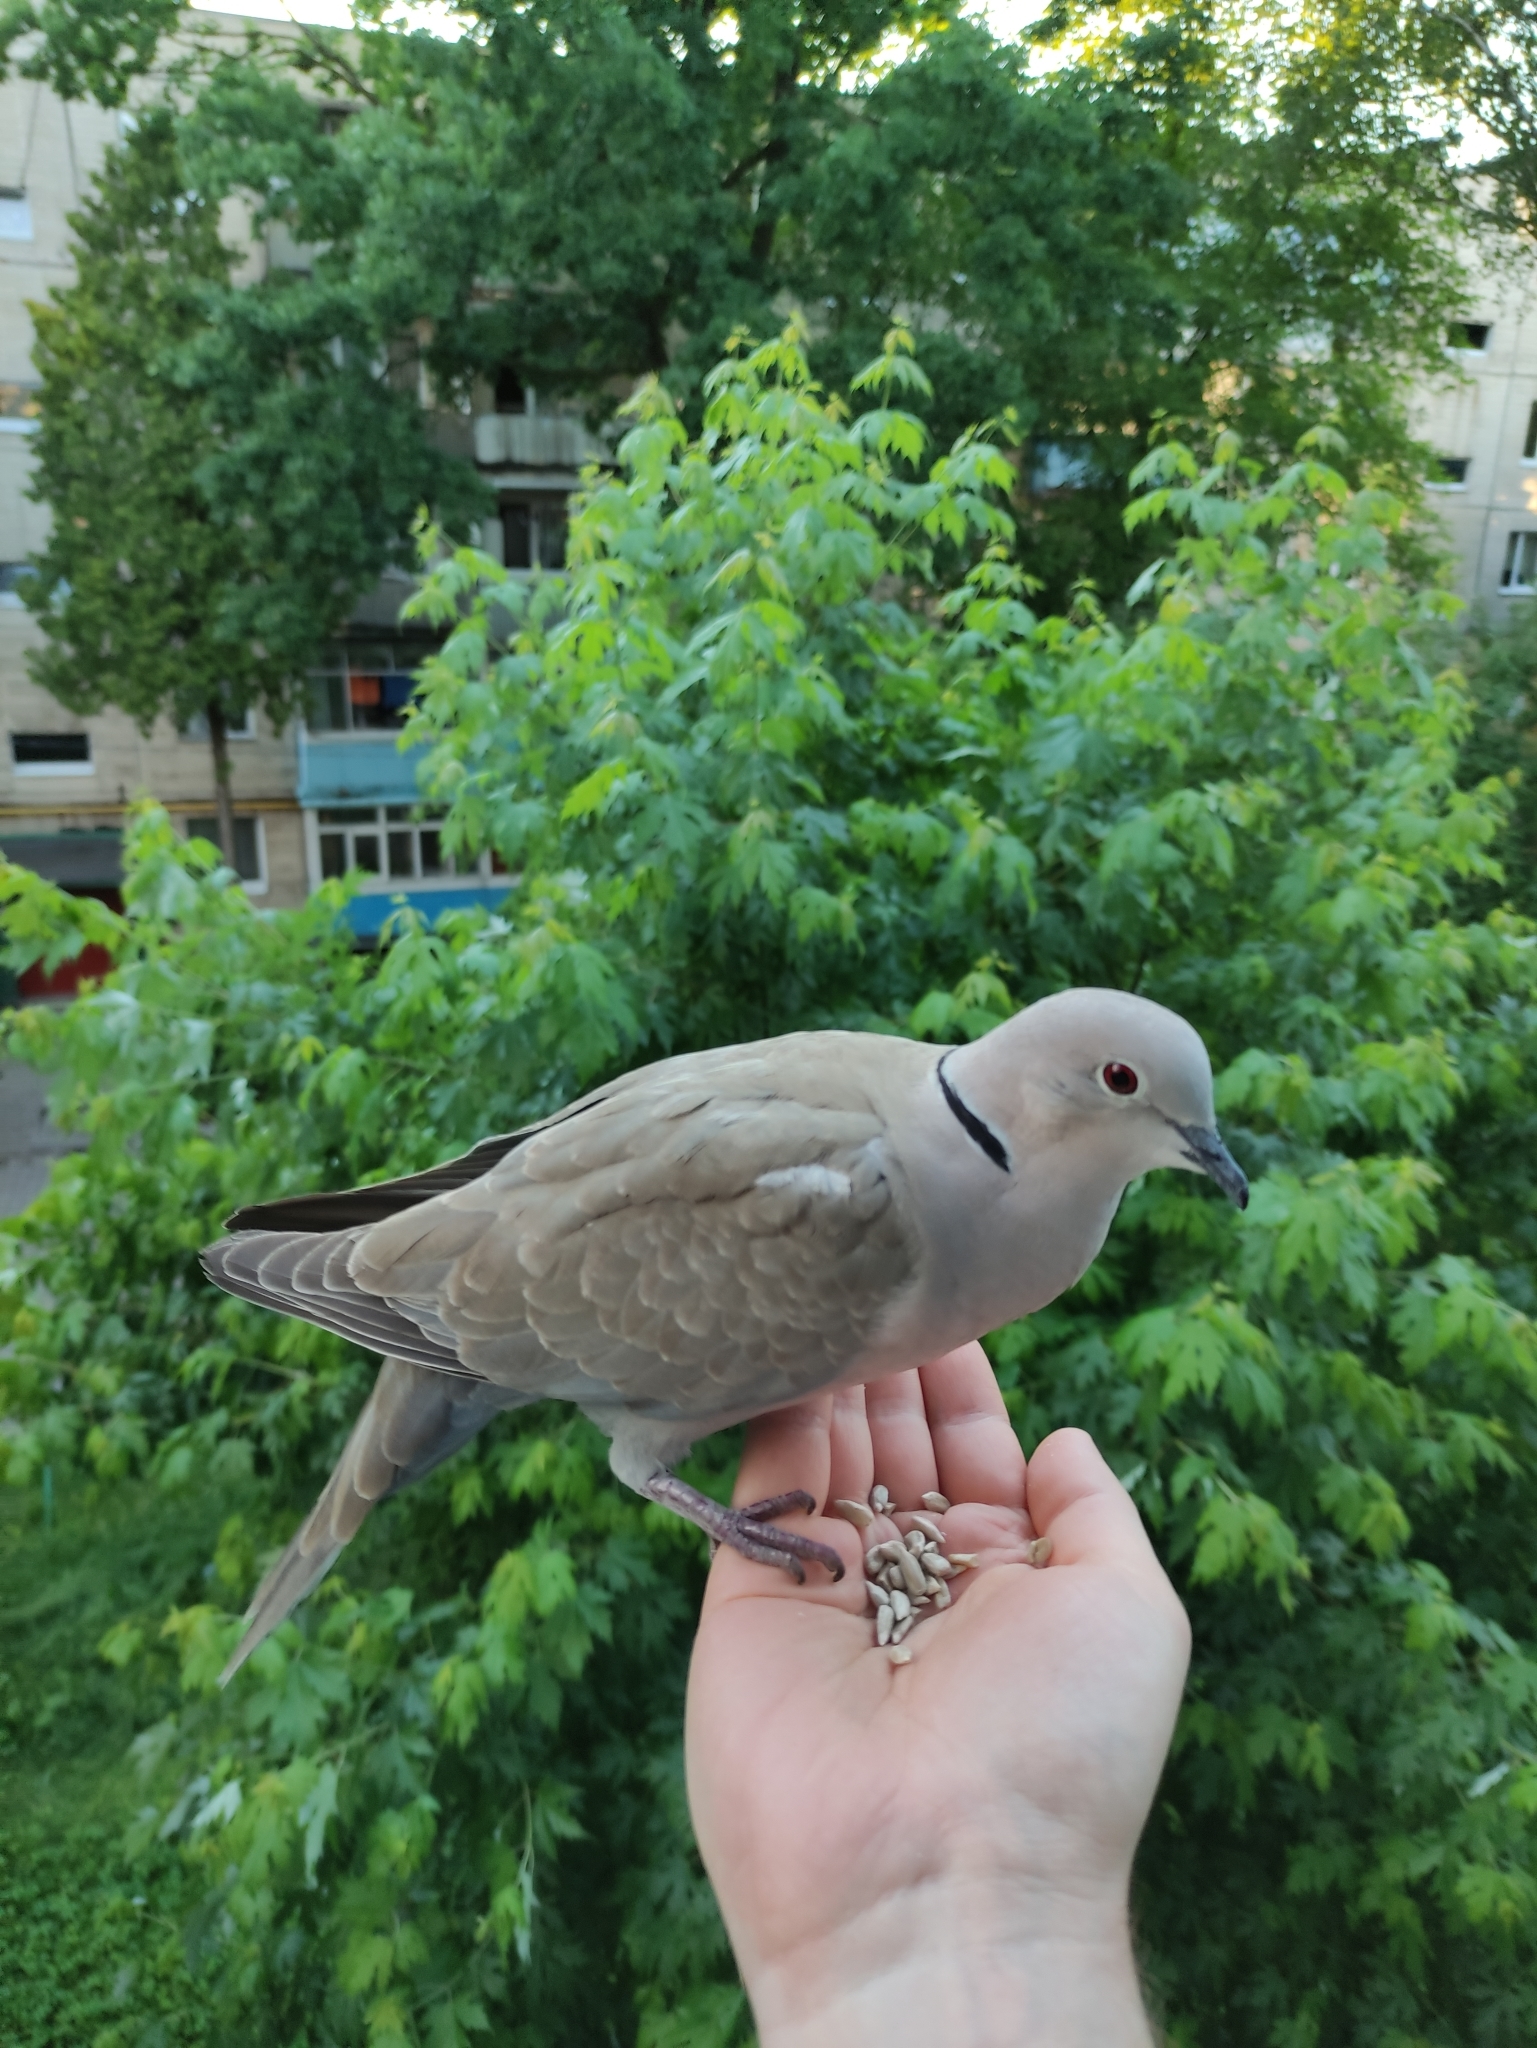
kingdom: Animalia
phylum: Chordata
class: Aves
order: Columbiformes
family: Columbidae
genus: Streptopelia
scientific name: Streptopelia decaocto
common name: Eurasian collared dove
